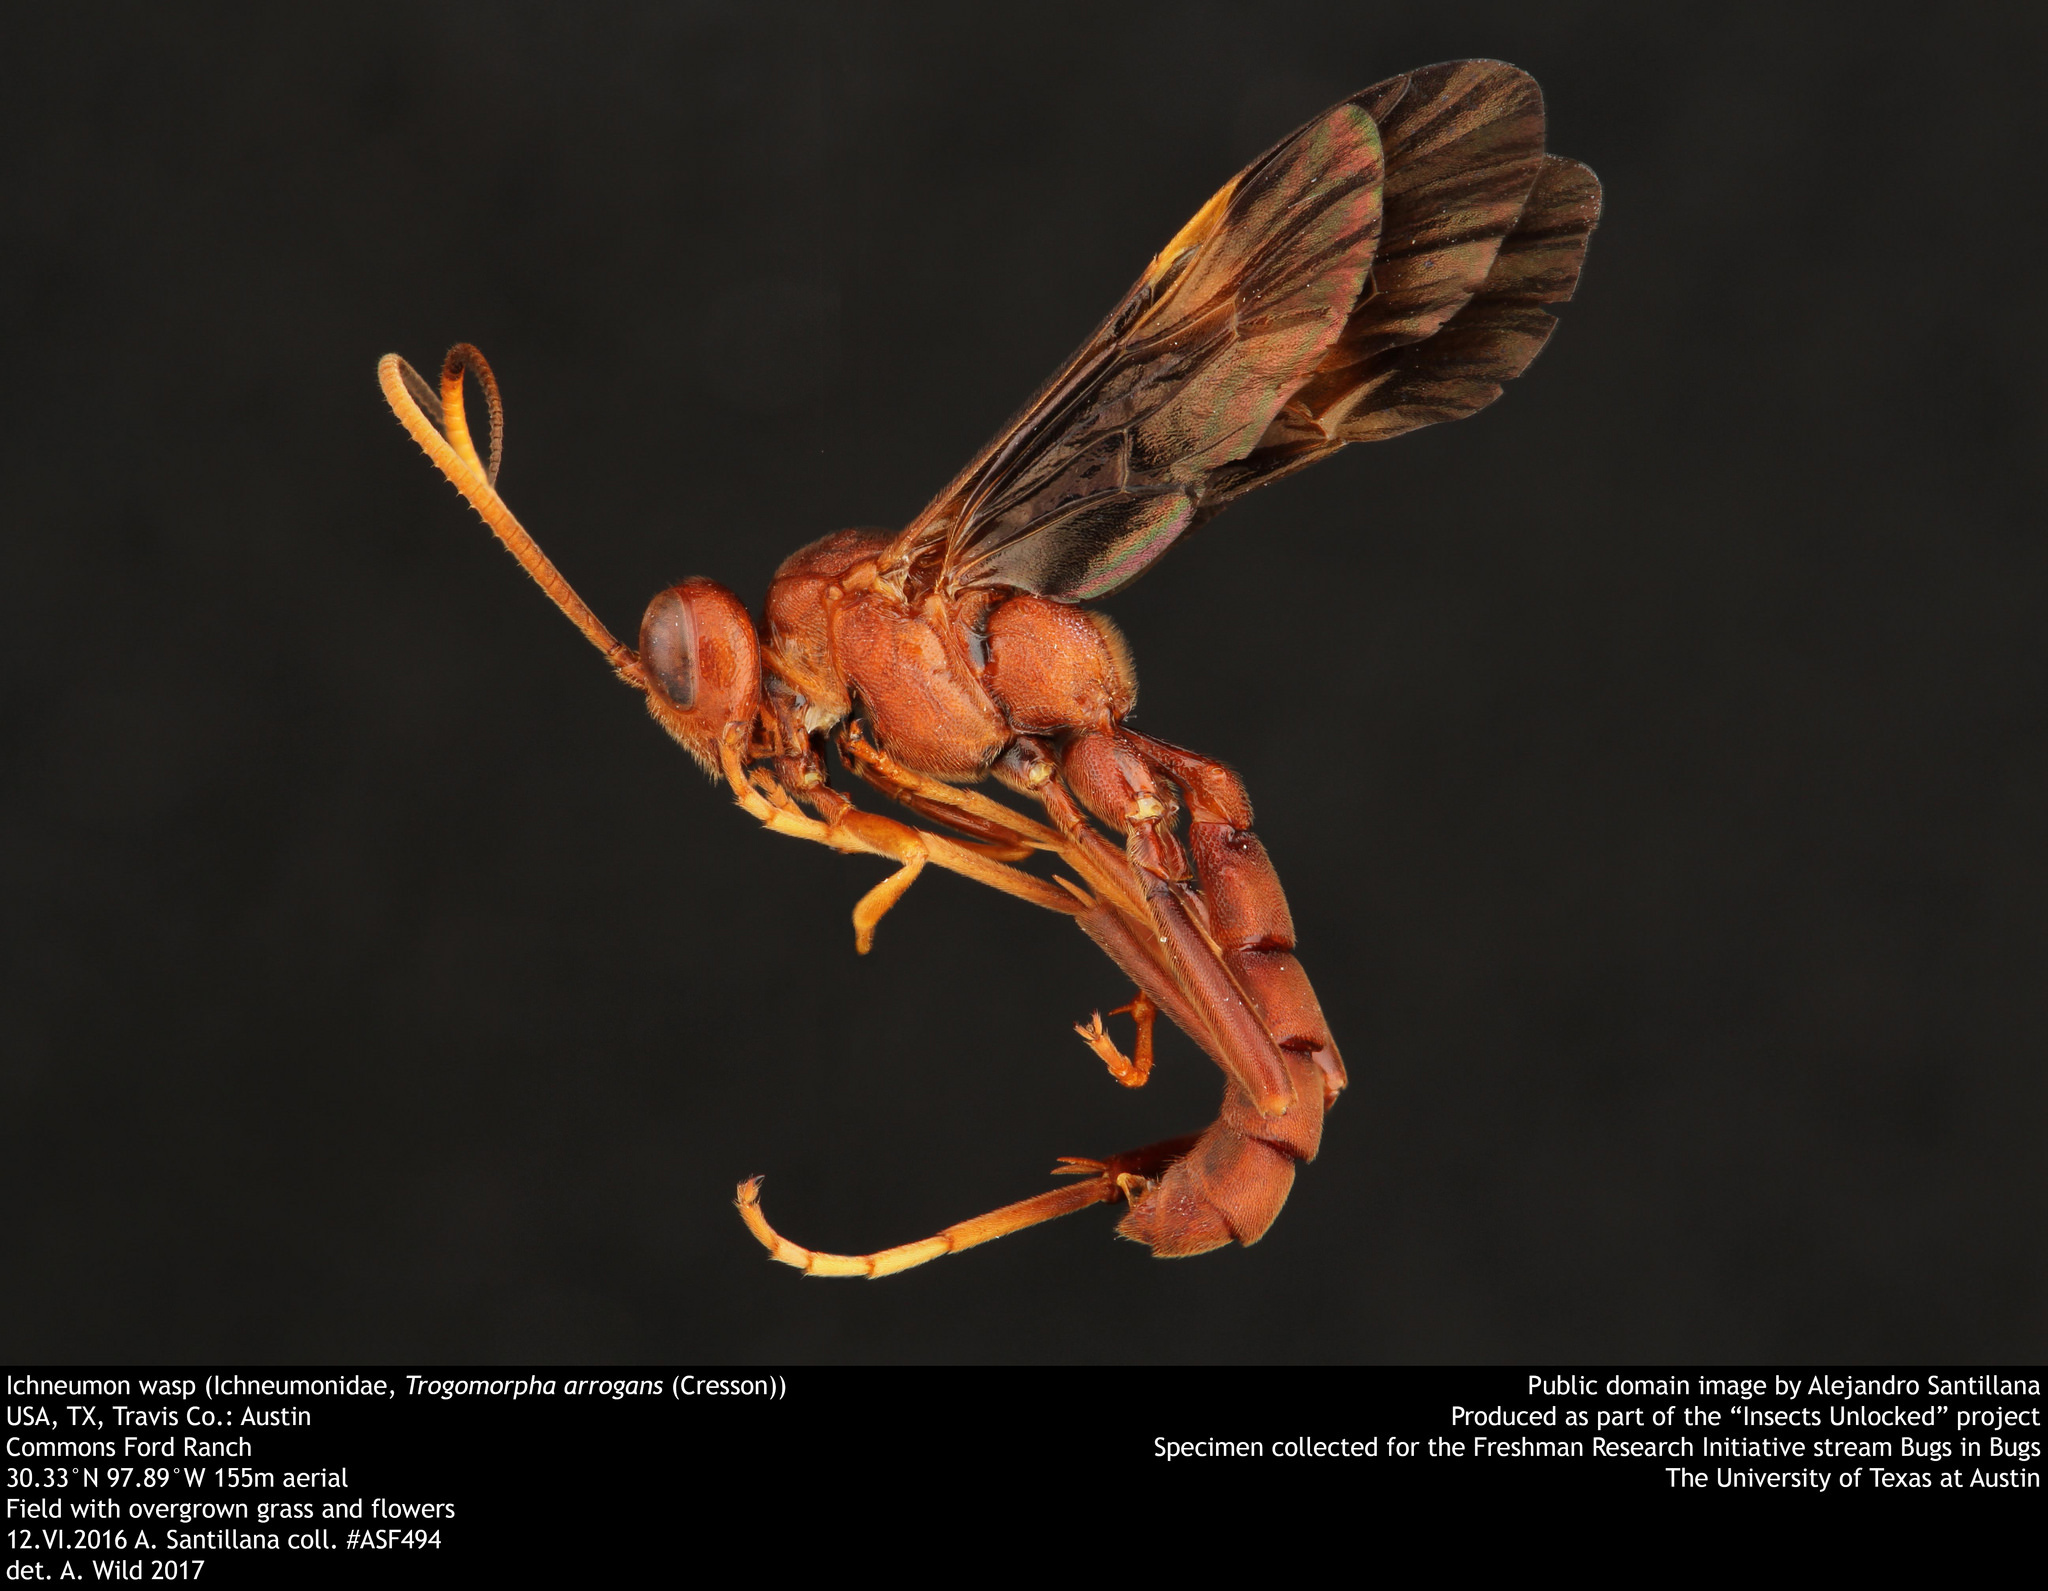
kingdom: Animalia
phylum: Arthropoda
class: Insecta
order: Hymenoptera
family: Ichneumonidae
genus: Trogomorpha
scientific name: Trogomorpha arrogans
